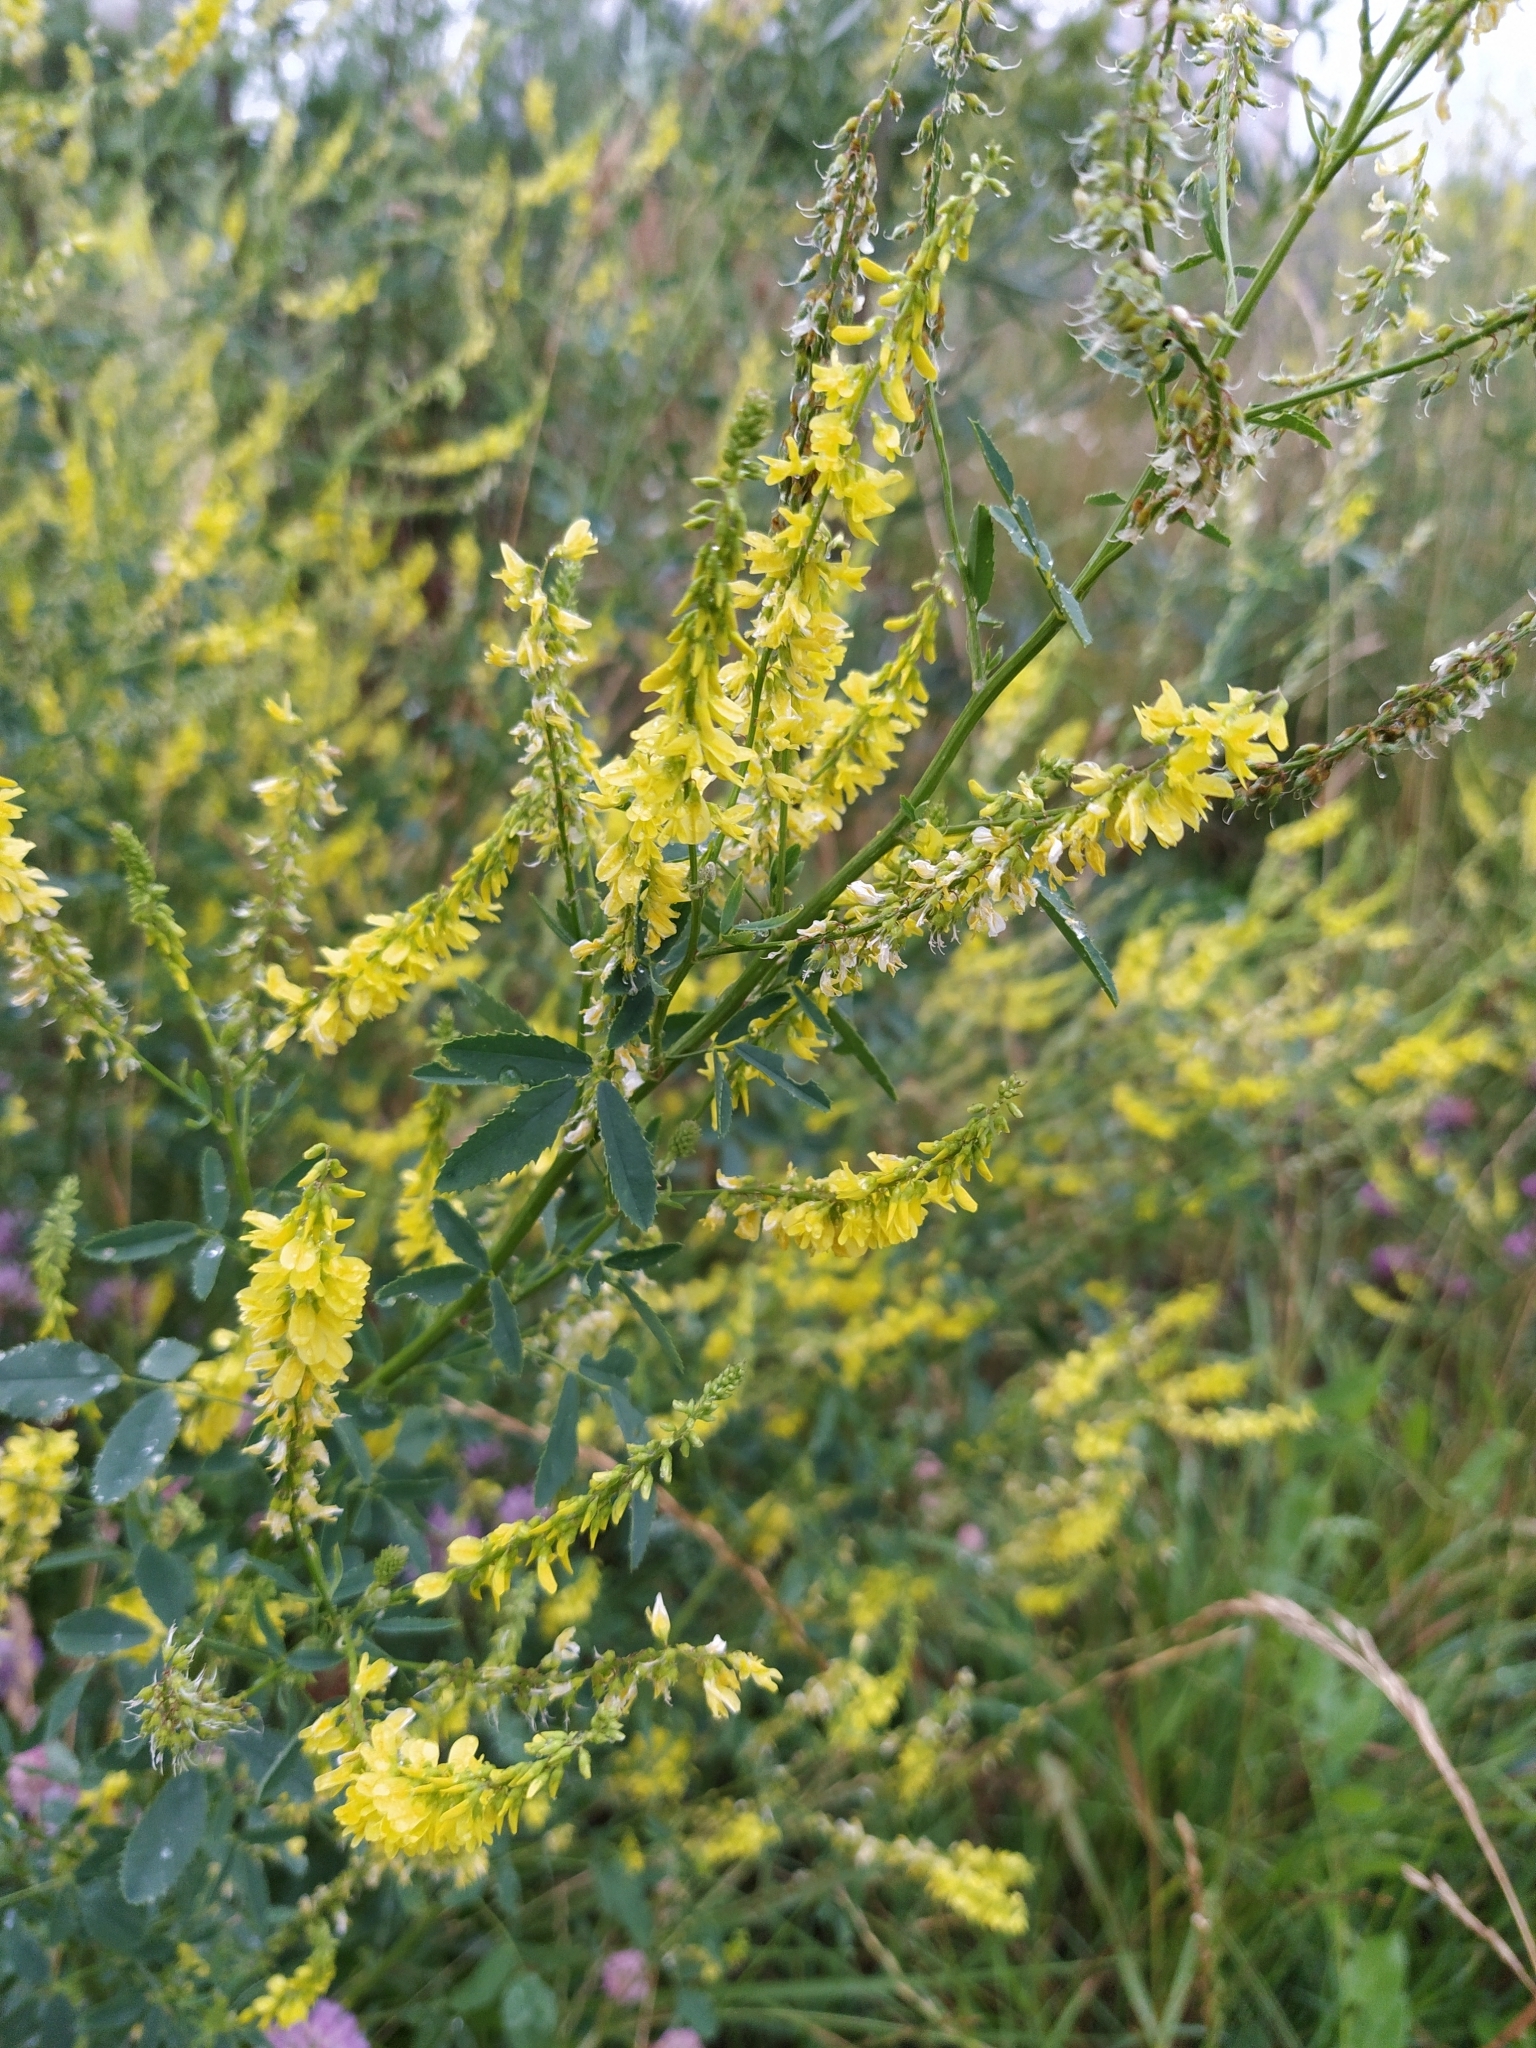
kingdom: Plantae
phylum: Tracheophyta
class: Magnoliopsida
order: Fabales
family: Fabaceae
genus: Melilotus
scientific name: Melilotus officinalis
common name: Sweetclover
